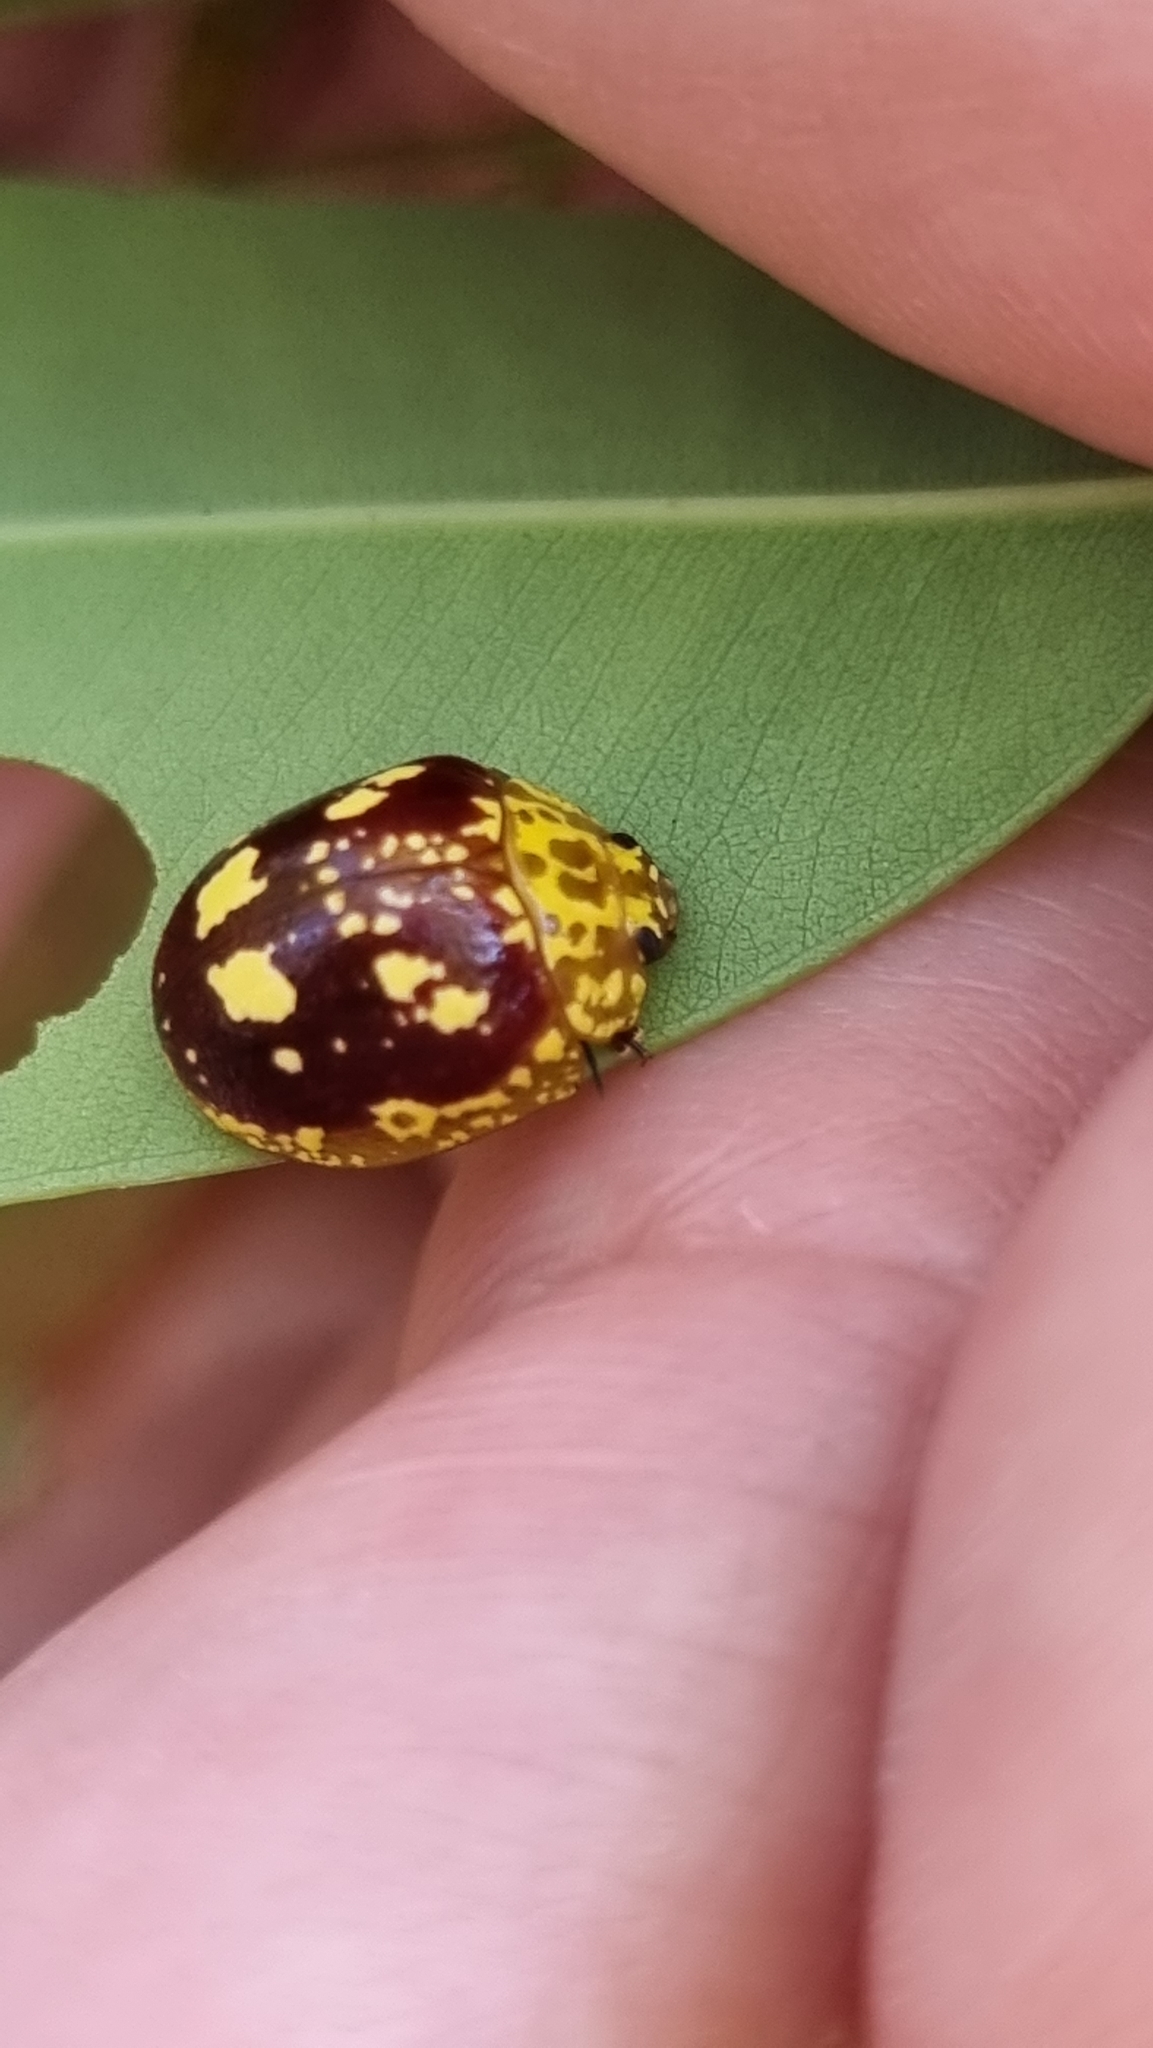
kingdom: Animalia
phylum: Arthropoda
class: Insecta
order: Coleoptera
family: Chrysomelidae
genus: Paropsis
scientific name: Paropsis maculata
